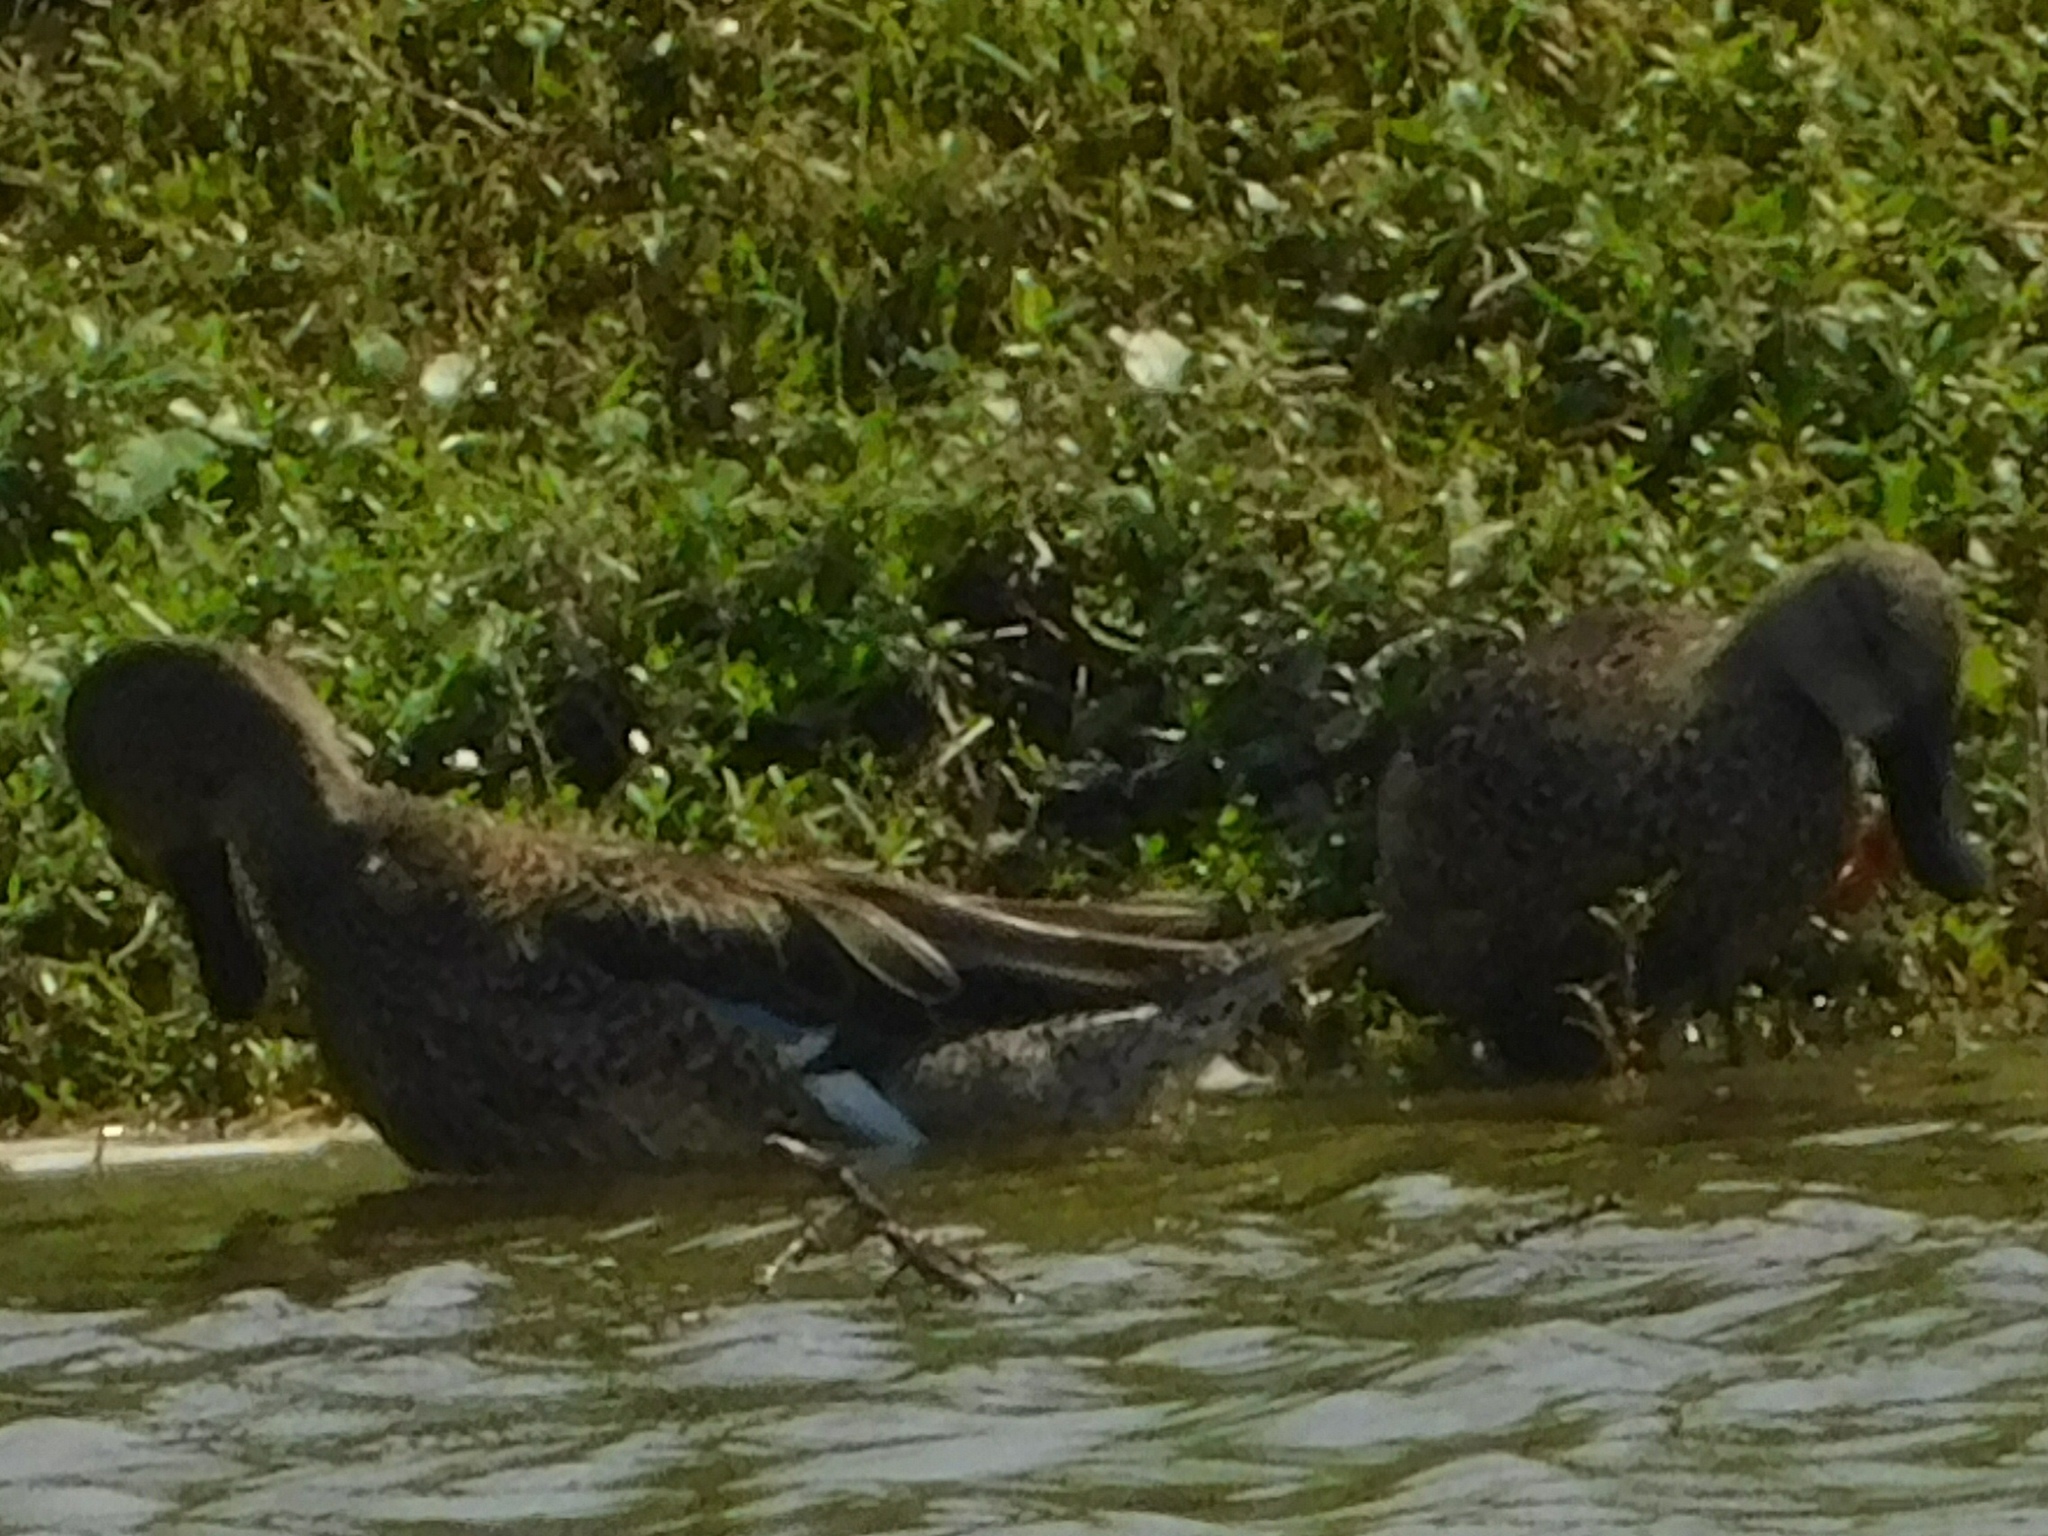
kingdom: Animalia
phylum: Chordata
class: Aves
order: Anseriformes
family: Anatidae
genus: Spatula
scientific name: Spatula discors
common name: Blue-winged teal
